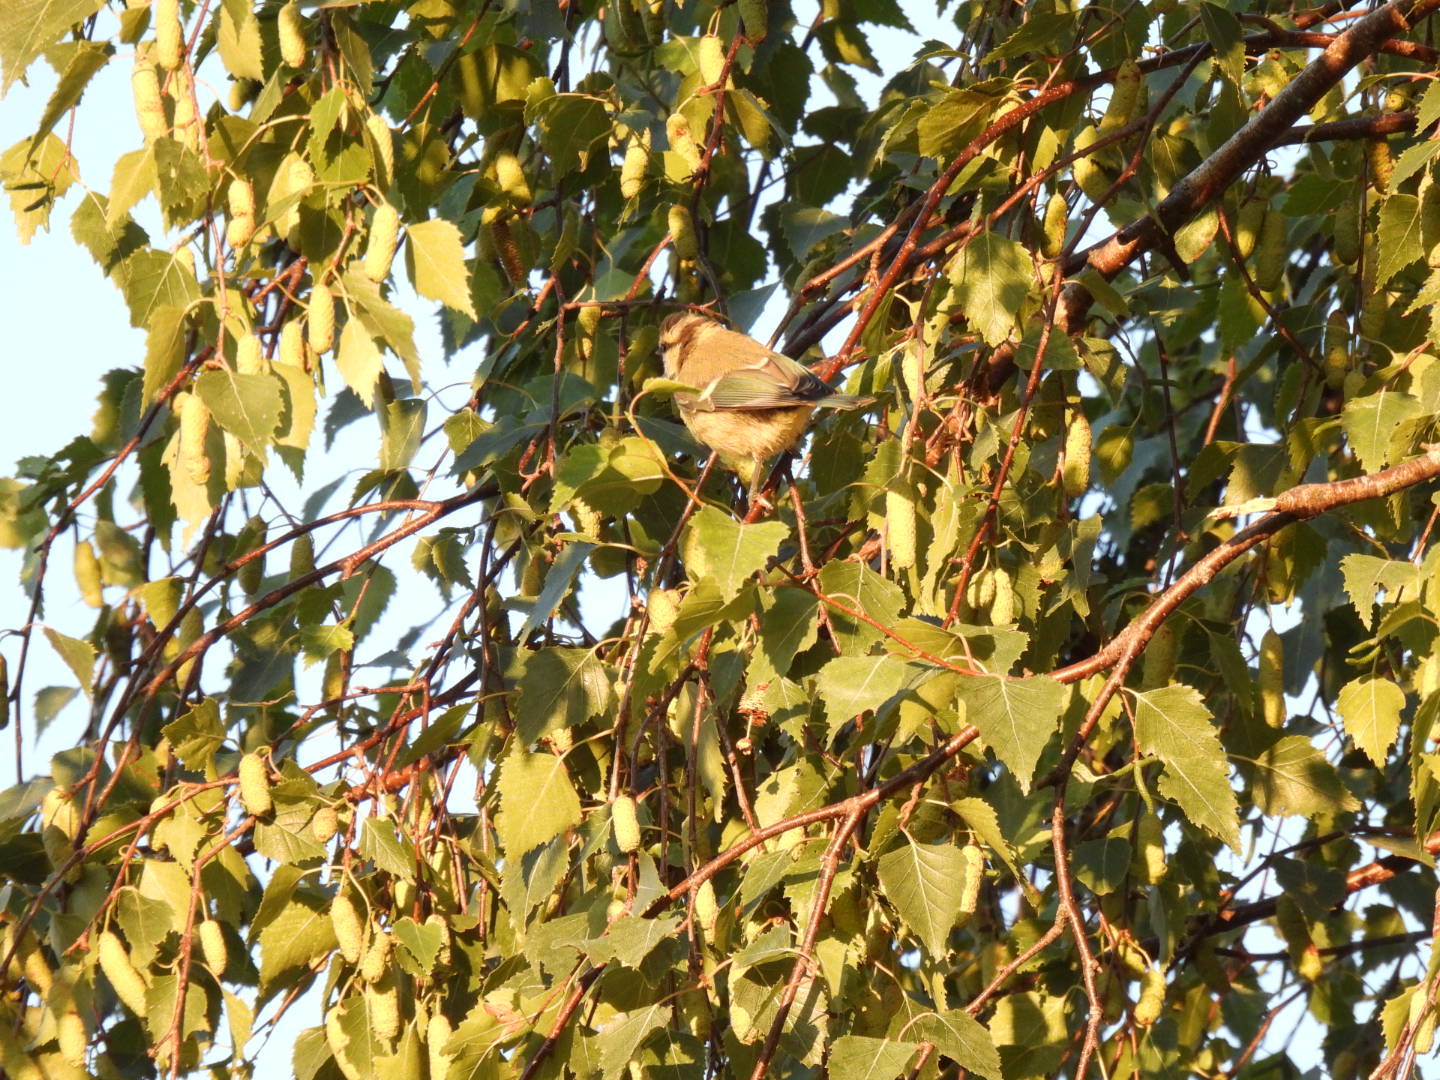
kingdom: Animalia
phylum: Chordata
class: Aves
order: Passeriformes
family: Paridae
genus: Cyanistes
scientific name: Cyanistes caeruleus
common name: Eurasian blue tit
